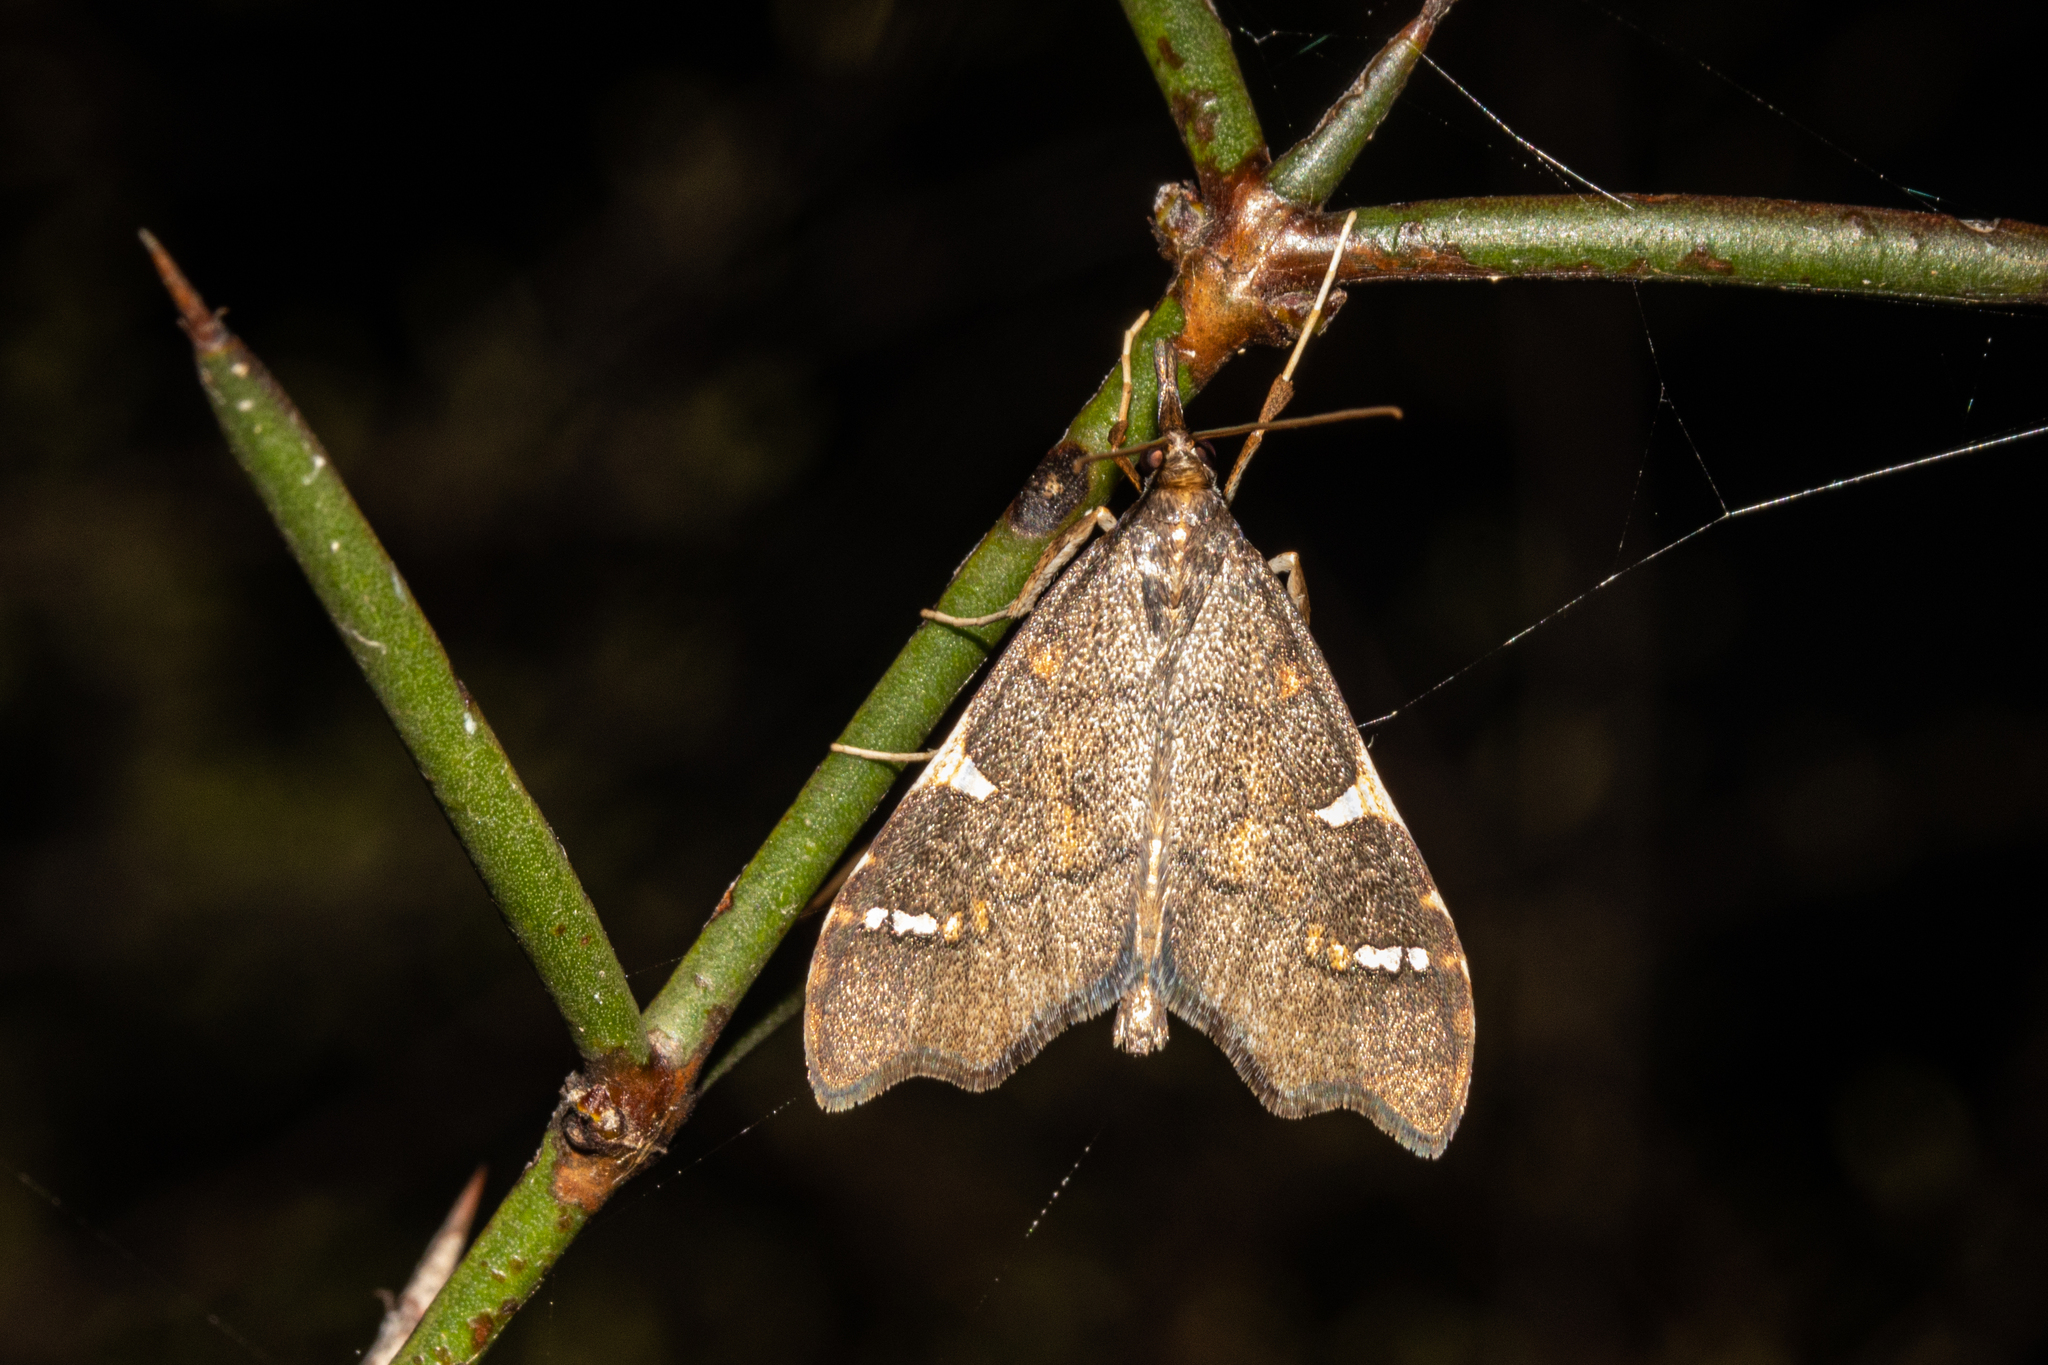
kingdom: Animalia
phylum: Arthropoda
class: Insecta
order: Lepidoptera
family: Crambidae
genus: Deana
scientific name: Deana hybreasalis
